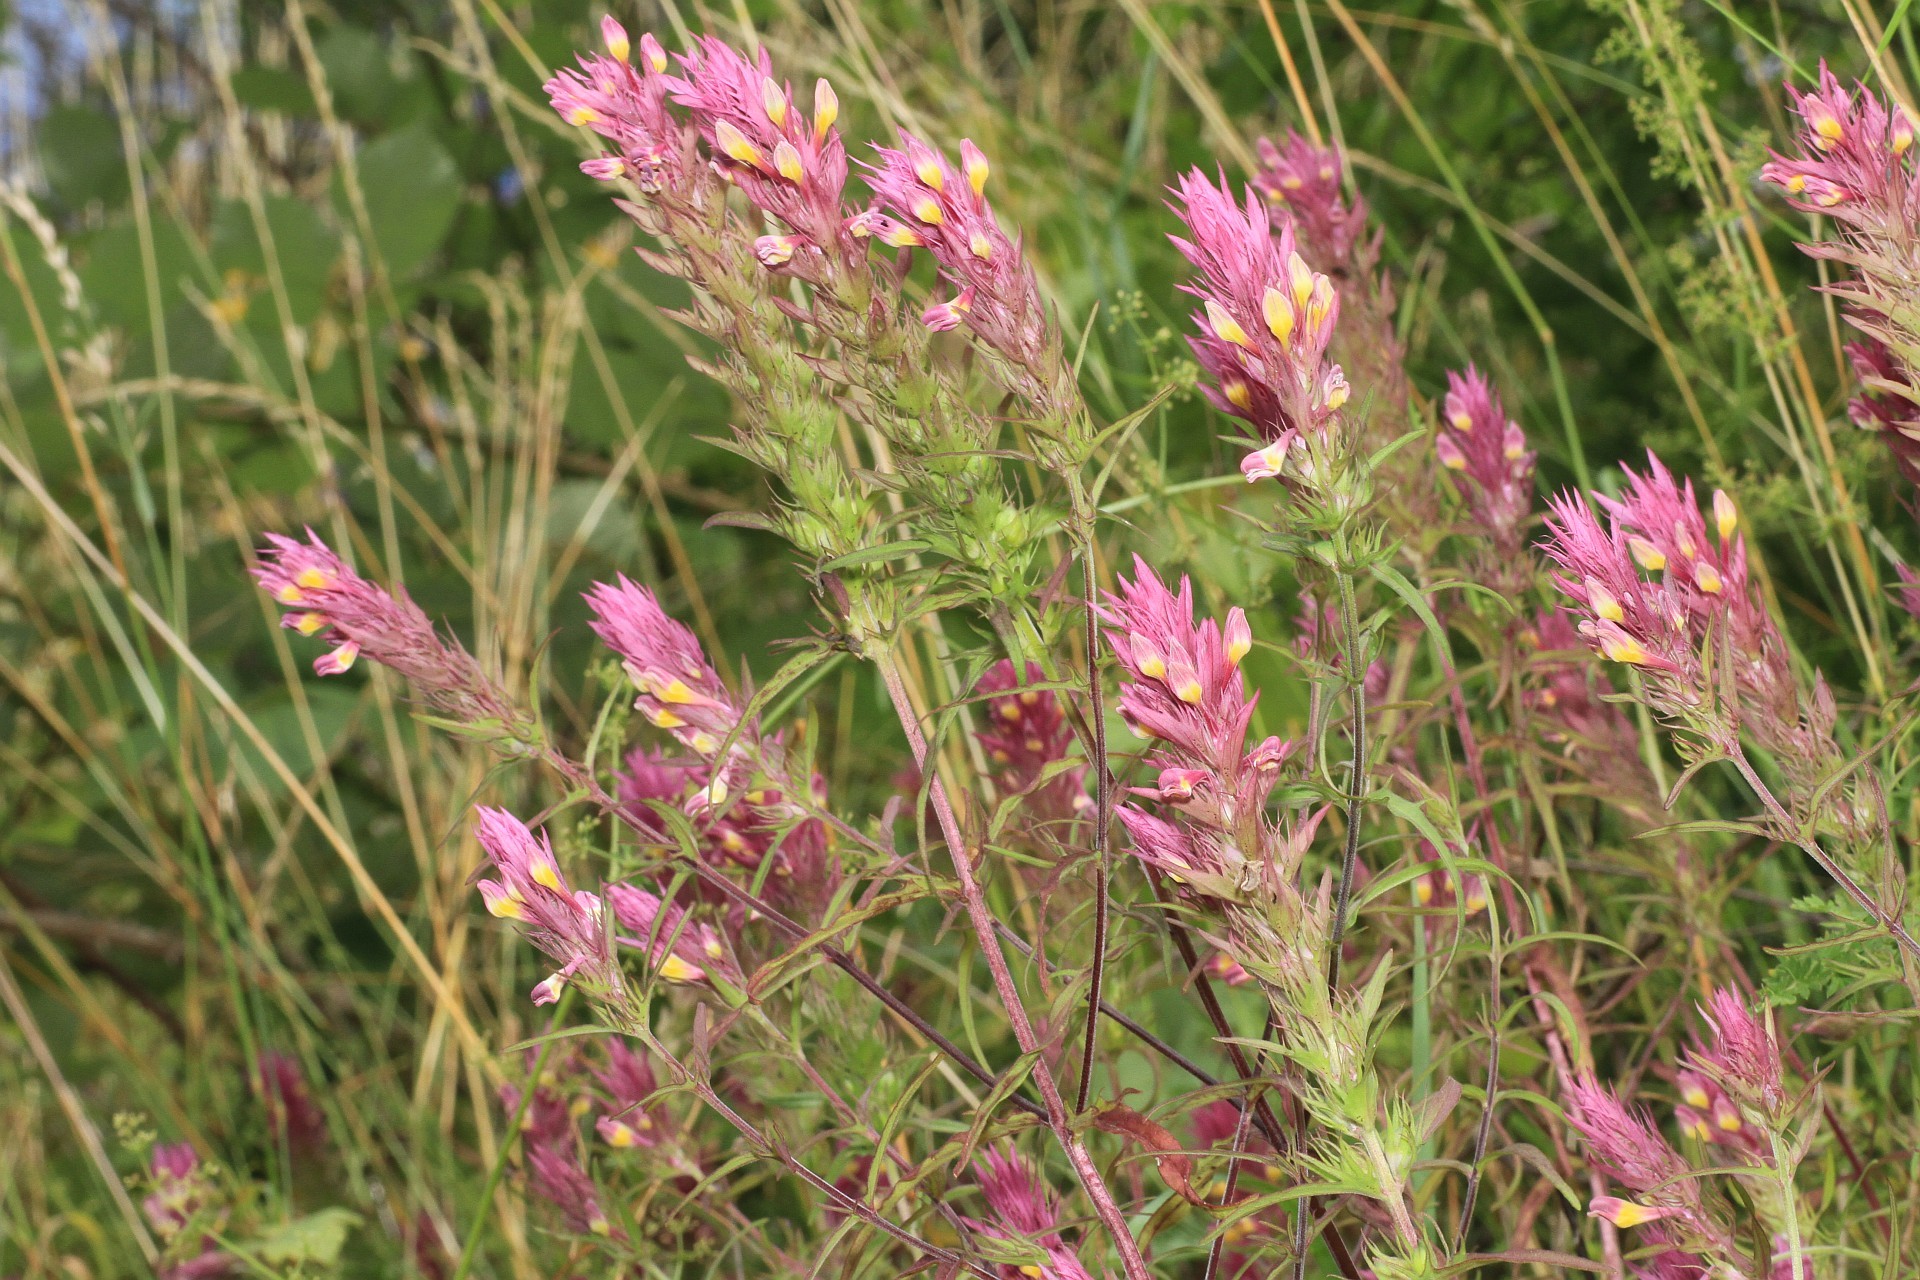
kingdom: Plantae
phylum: Tracheophyta
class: Magnoliopsida
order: Lamiales
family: Orobanchaceae
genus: Melampyrum
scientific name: Melampyrum arvense
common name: Field cow-wheat
